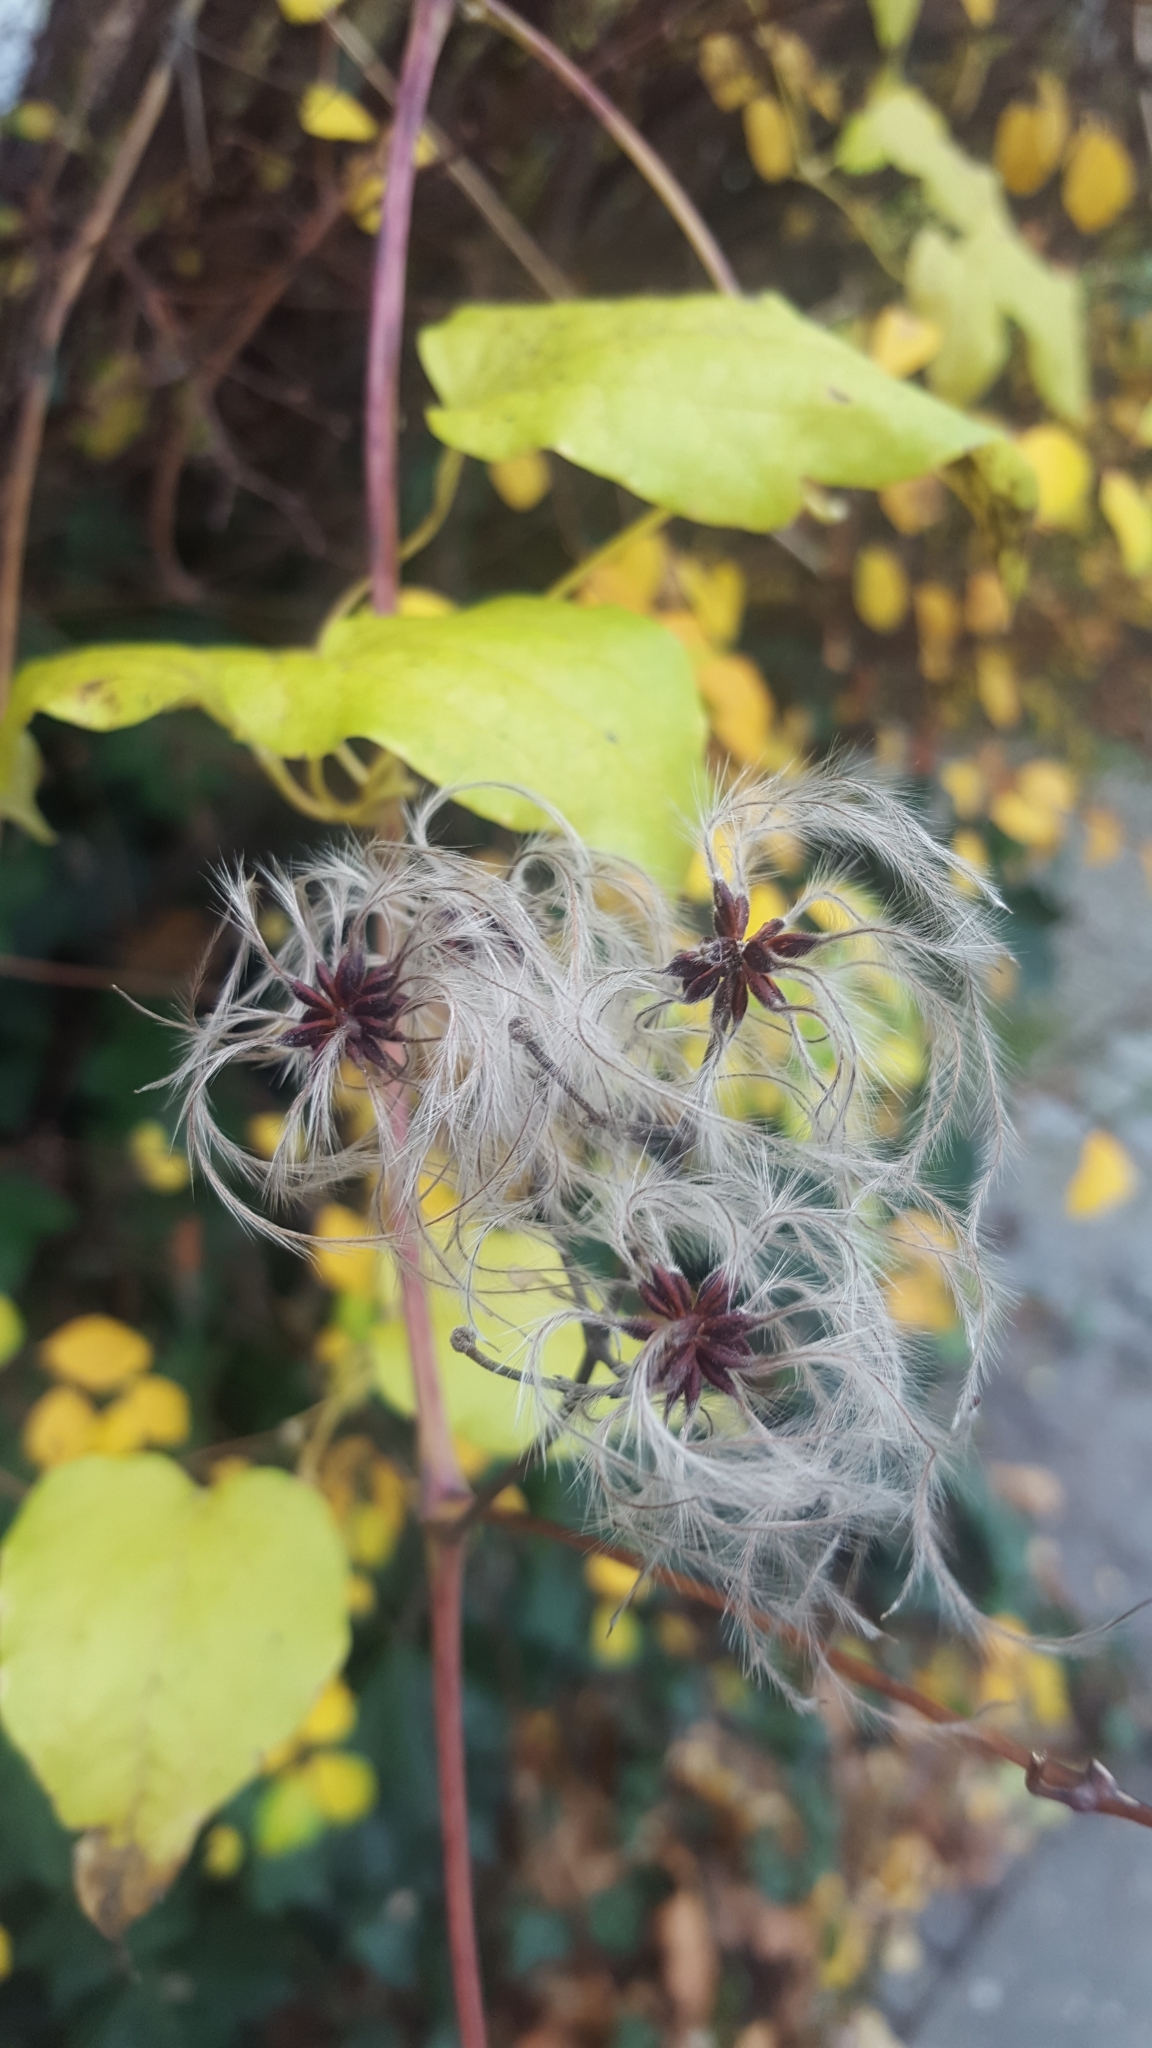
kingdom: Plantae
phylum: Tracheophyta
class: Magnoliopsida
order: Ranunculales
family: Ranunculaceae
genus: Clematis
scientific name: Clematis vitalba
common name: Evergreen clematis
